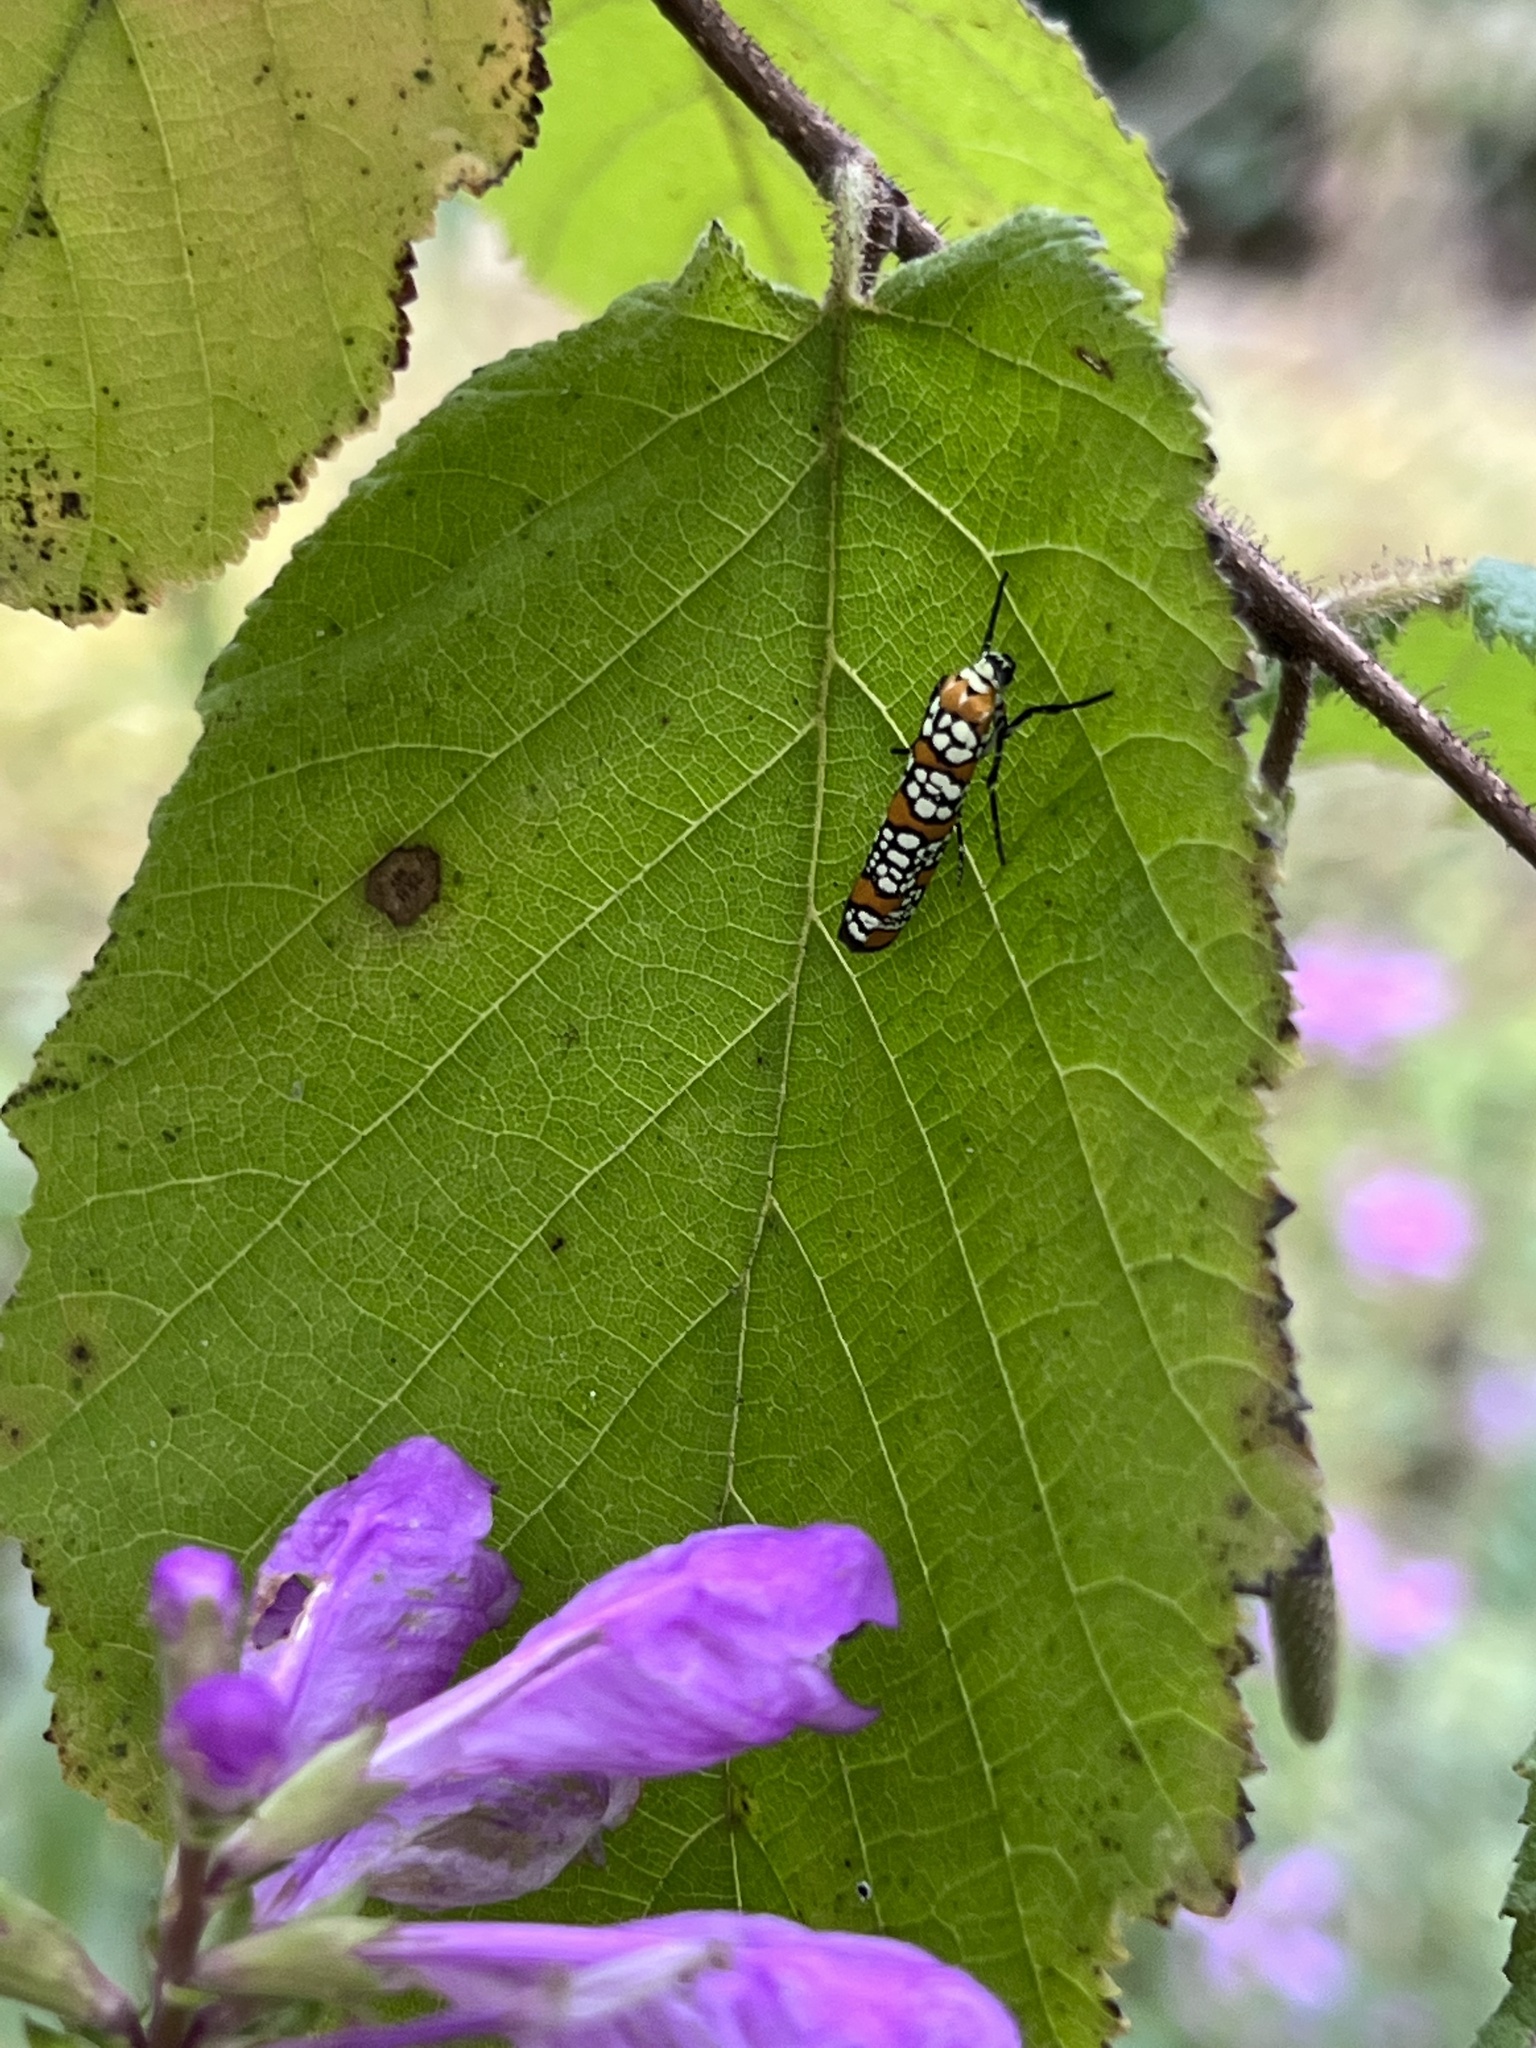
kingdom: Animalia
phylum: Arthropoda
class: Insecta
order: Lepidoptera
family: Attevidae
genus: Atteva
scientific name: Atteva punctella
